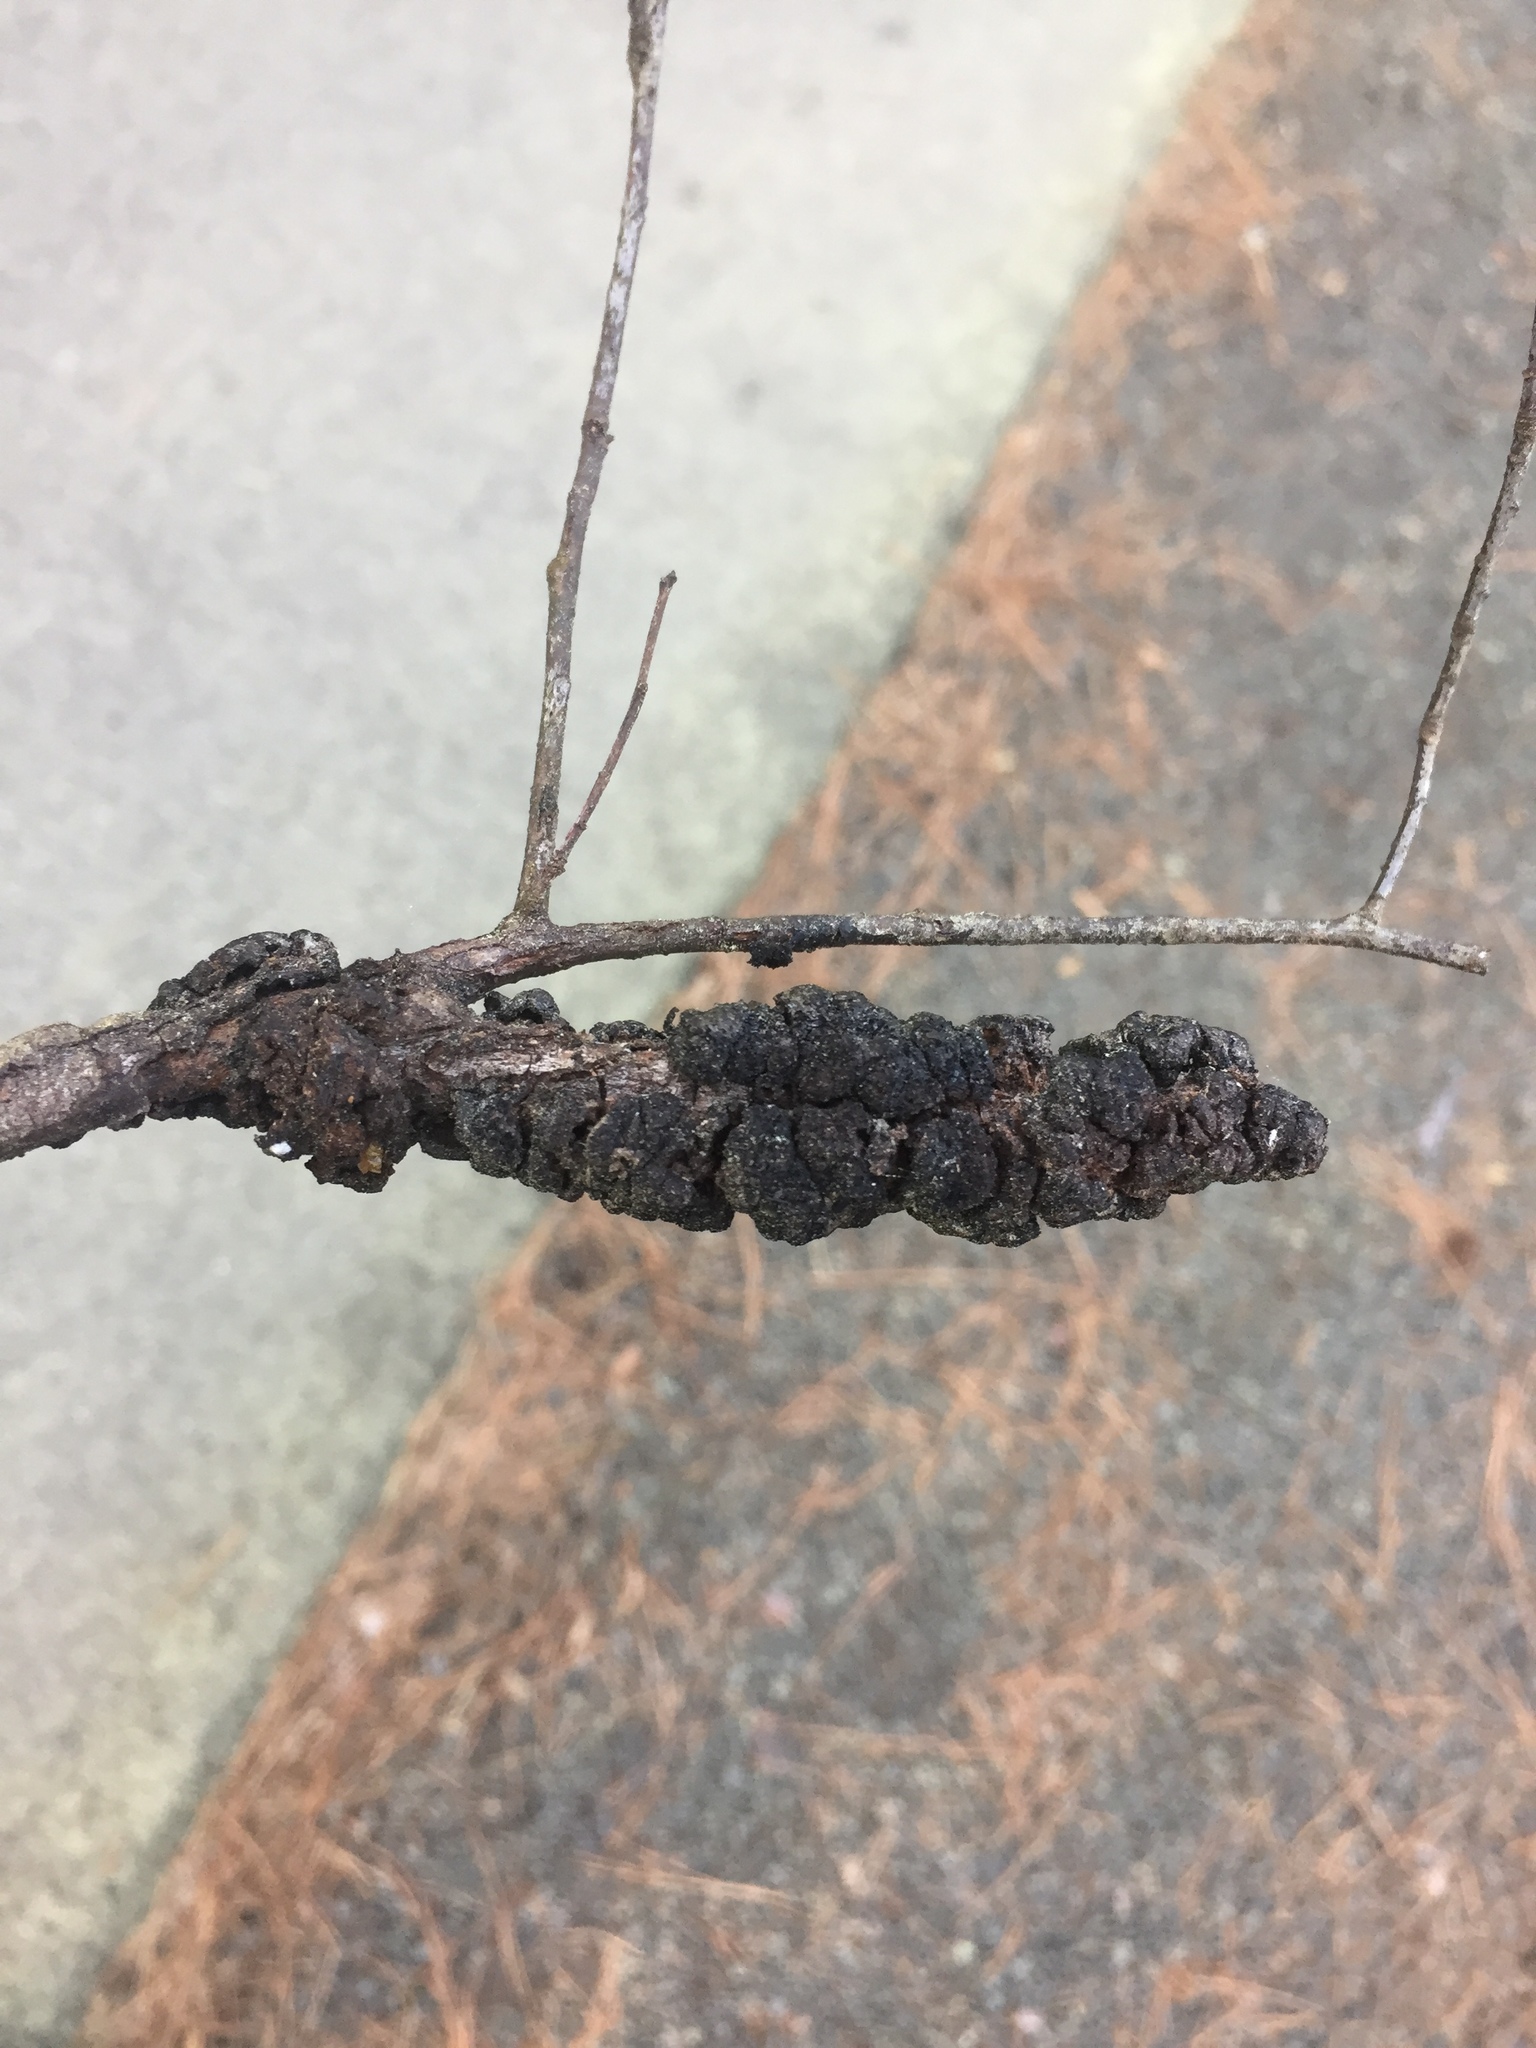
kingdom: Fungi
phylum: Ascomycota
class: Dothideomycetes
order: Venturiales
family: Venturiaceae
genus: Apiosporina
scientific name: Apiosporina morbosa
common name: Black knot
